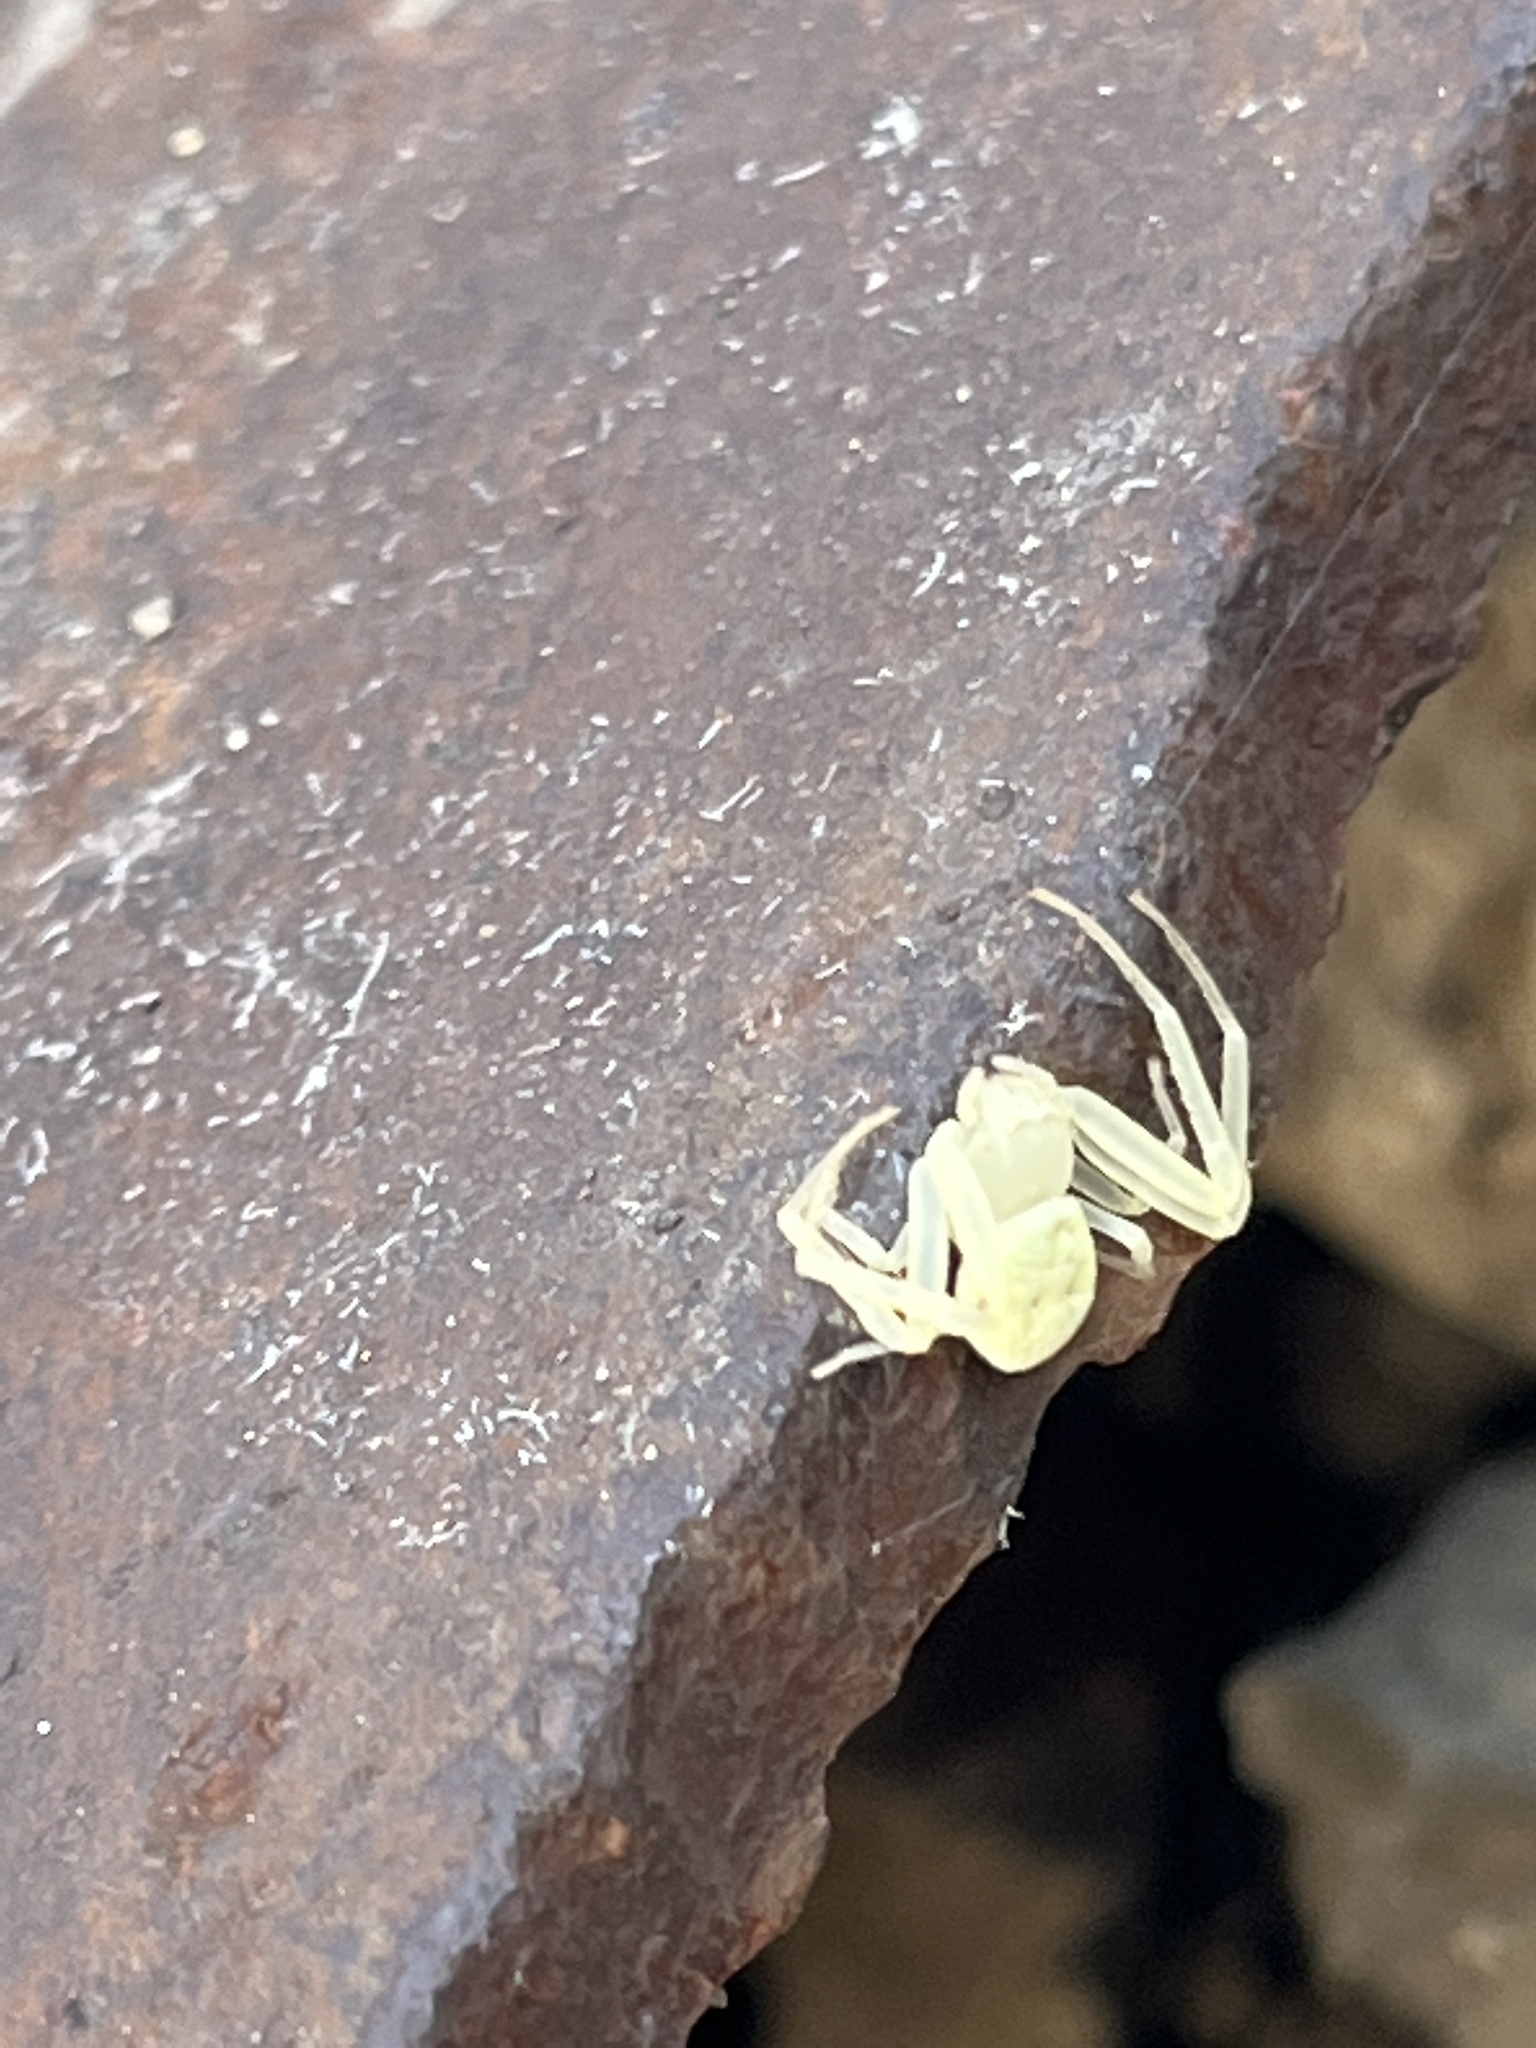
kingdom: Animalia
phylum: Arthropoda
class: Arachnida
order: Araneae
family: Thomisidae
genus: Misumessus
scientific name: Misumessus oblongus
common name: American green crab spider
